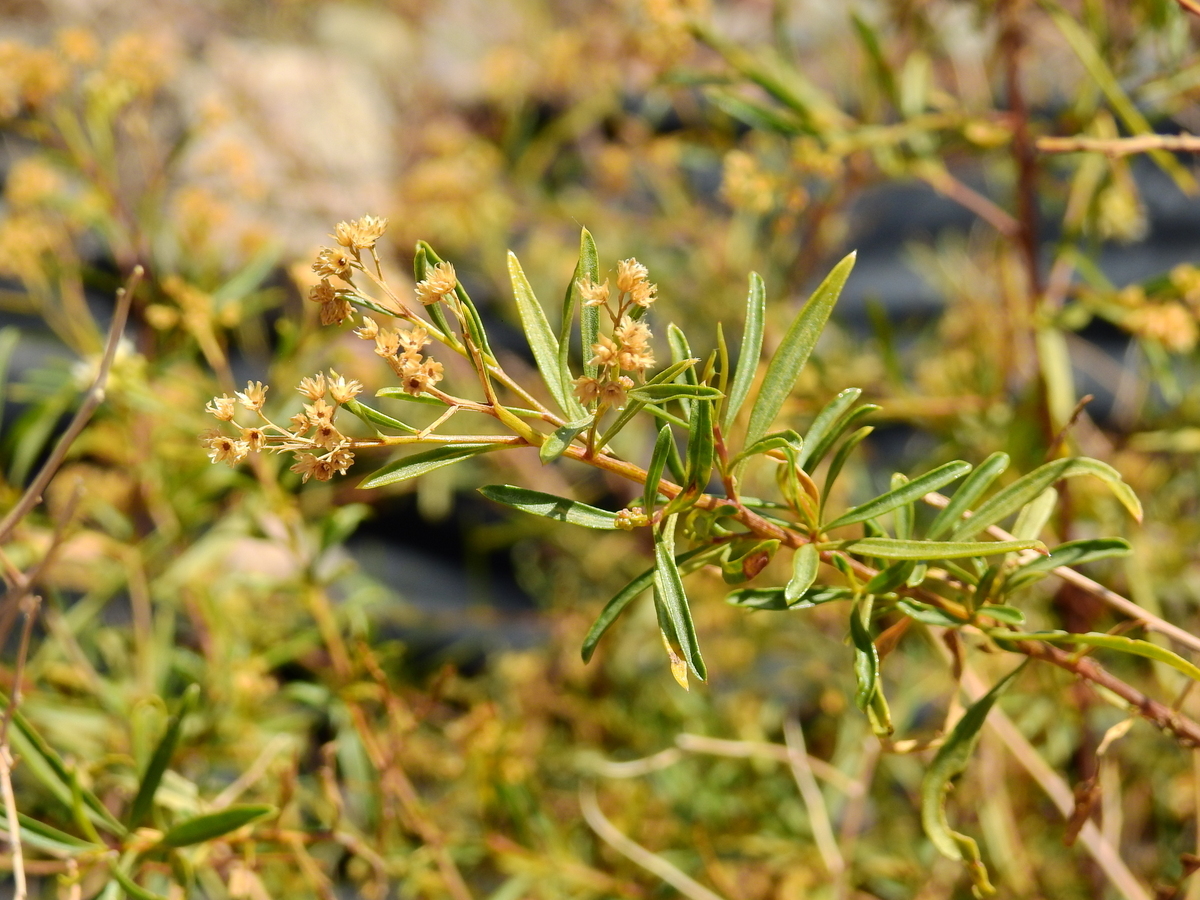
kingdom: Plantae
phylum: Tracheophyta
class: Magnoliopsida
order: Asterales
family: Asteraceae
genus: Baccharis
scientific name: Baccharis salicifolia
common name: Sticky baccharis
